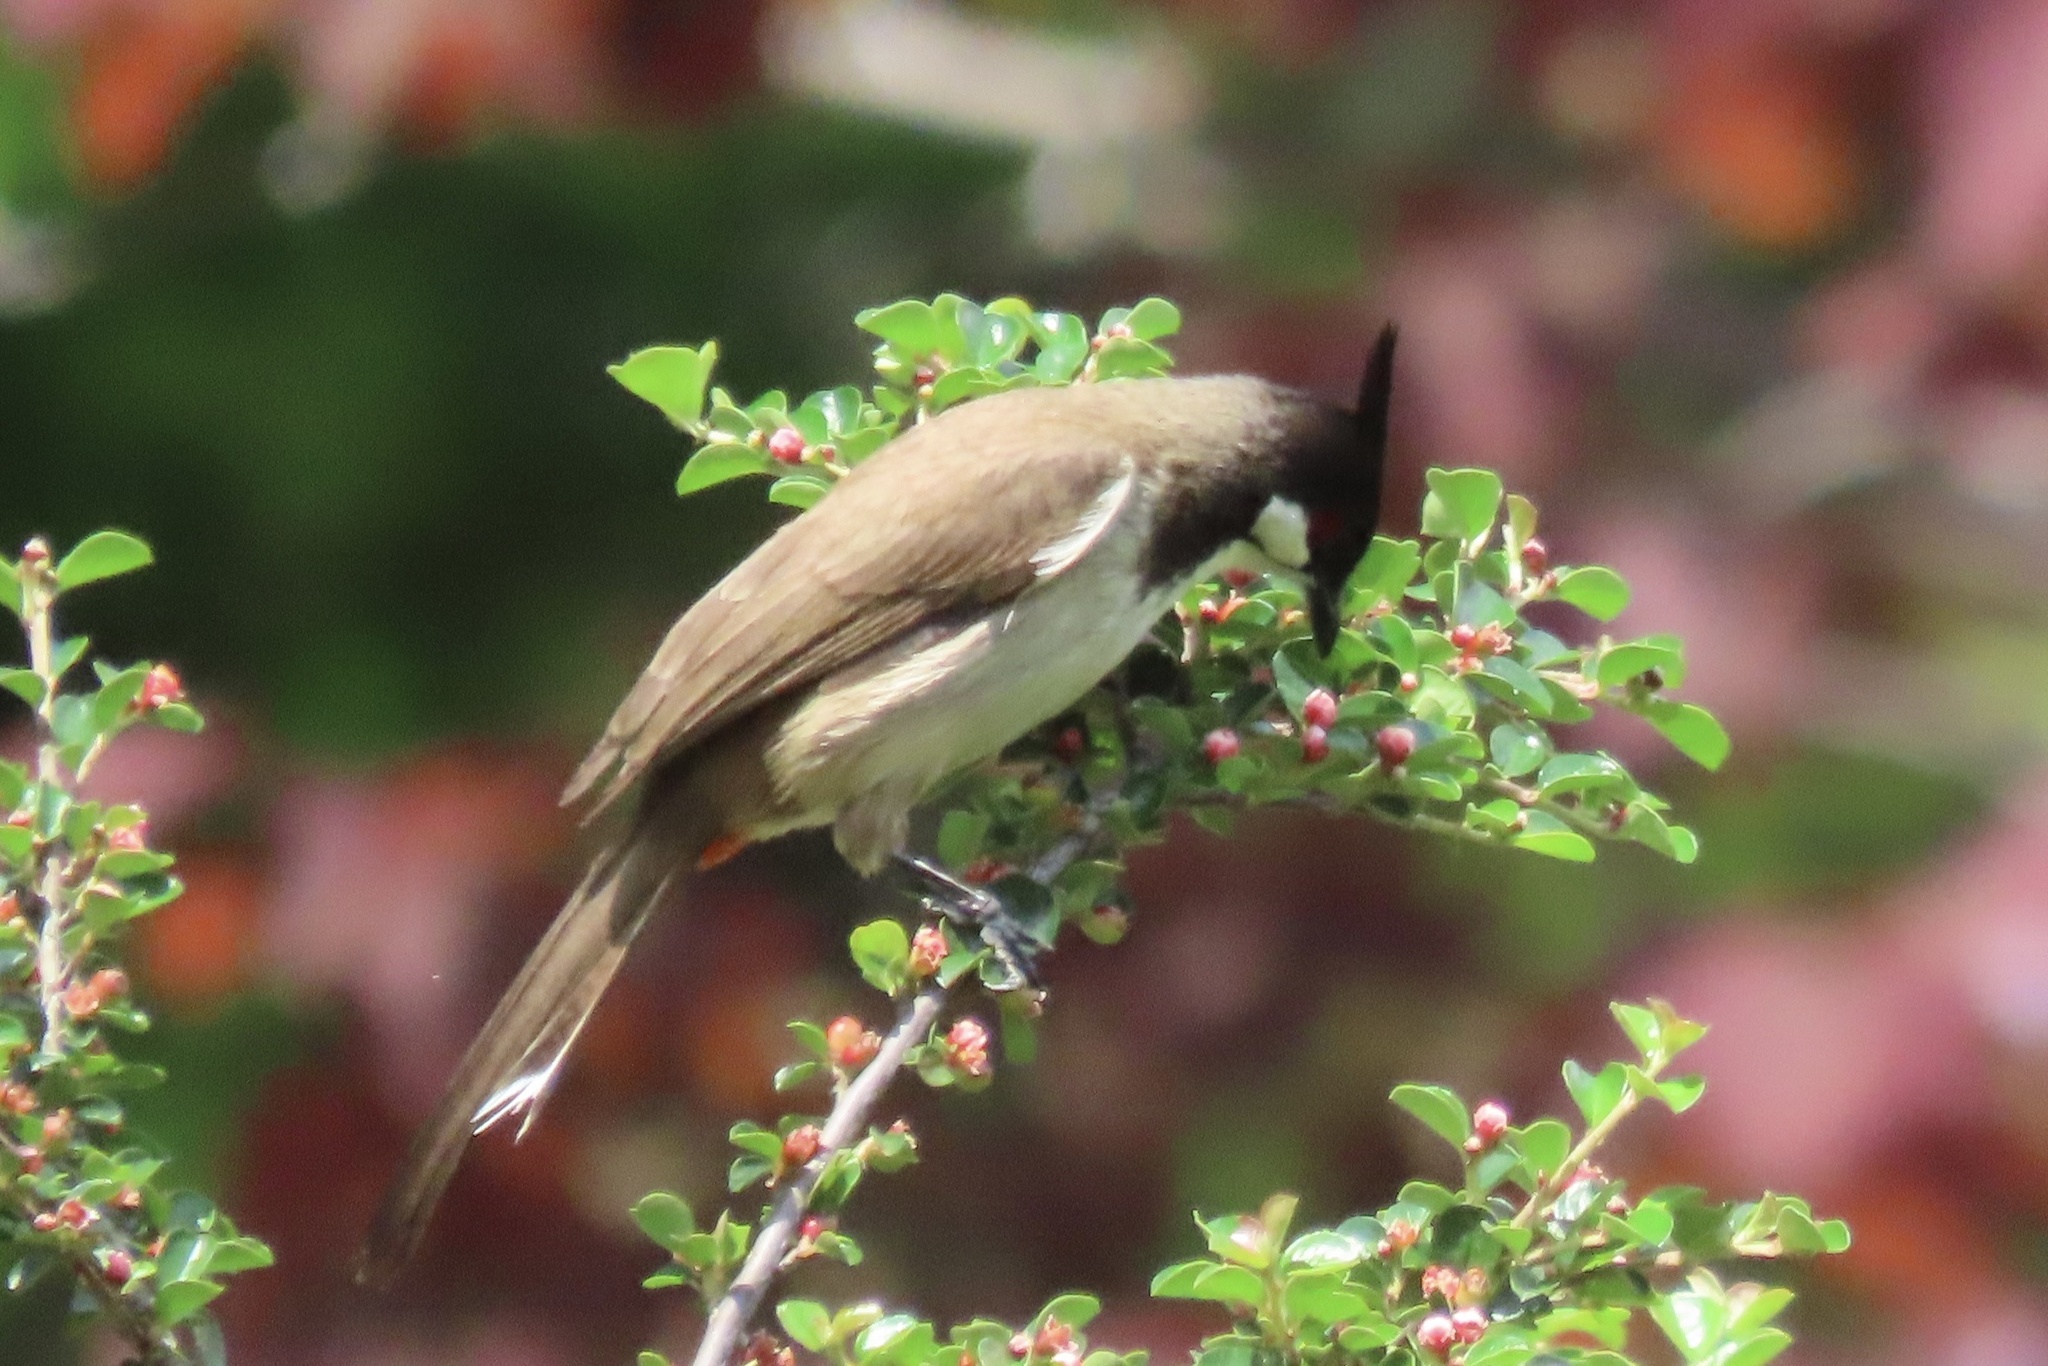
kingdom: Animalia
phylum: Chordata
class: Aves
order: Passeriformes
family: Pycnonotidae
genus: Pycnonotus
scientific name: Pycnonotus jocosus
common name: Red-whiskered bulbul
